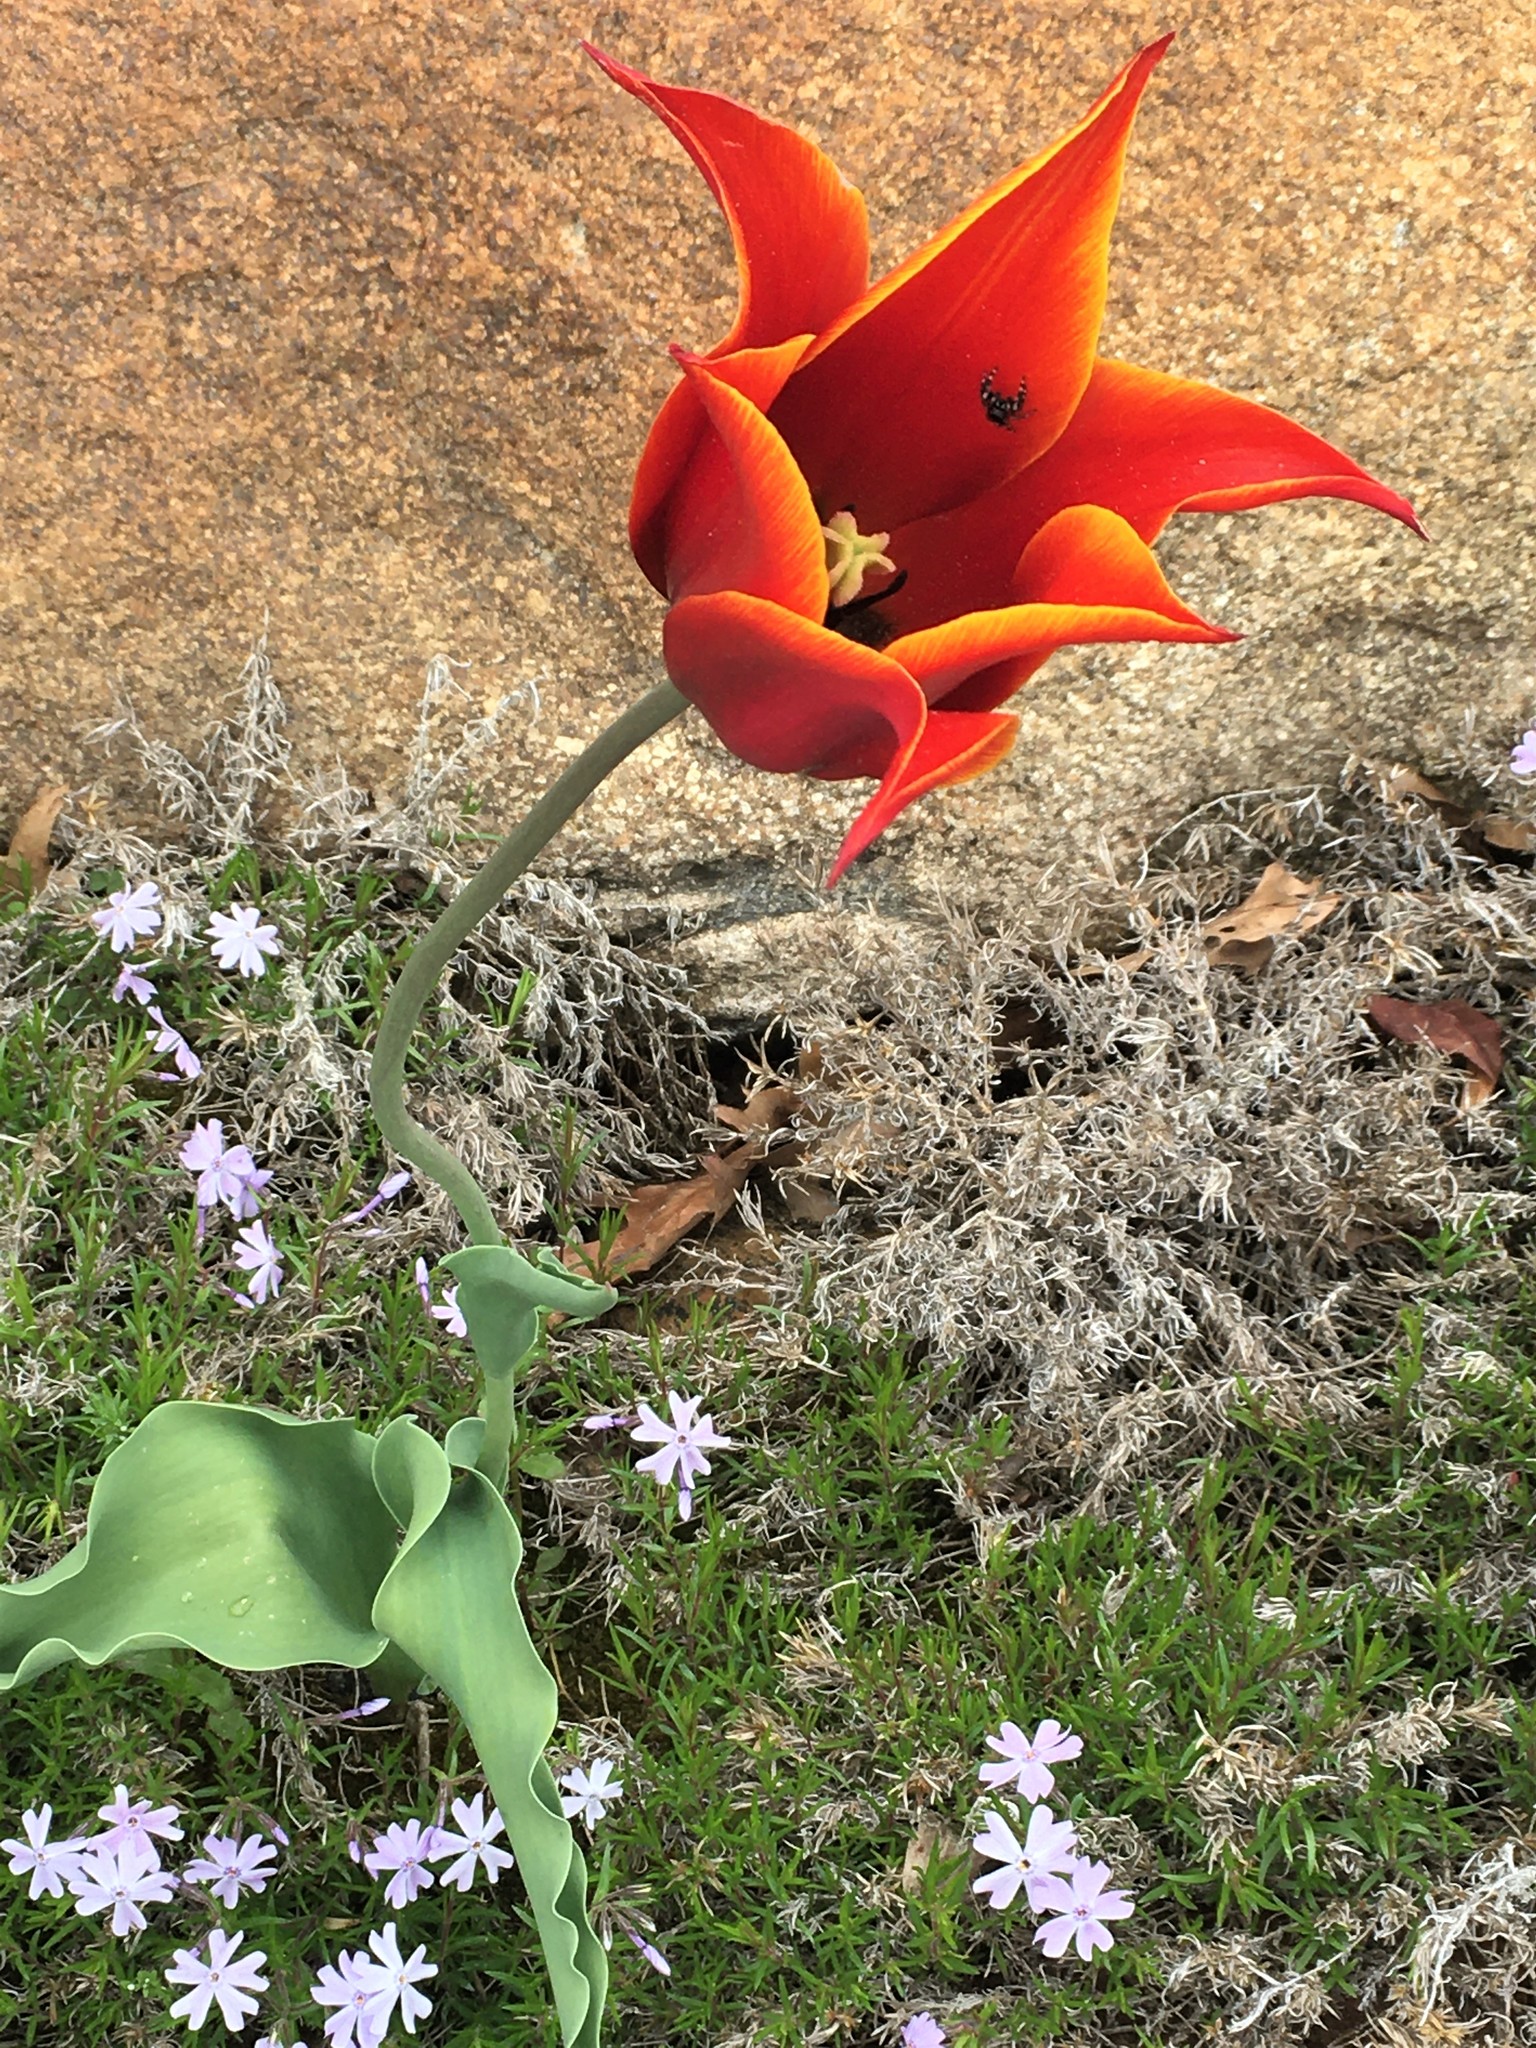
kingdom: Animalia
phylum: Arthropoda
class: Arachnida
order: Araneae
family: Salticidae
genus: Phidippus
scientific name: Phidippus audax
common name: Bold jumper
